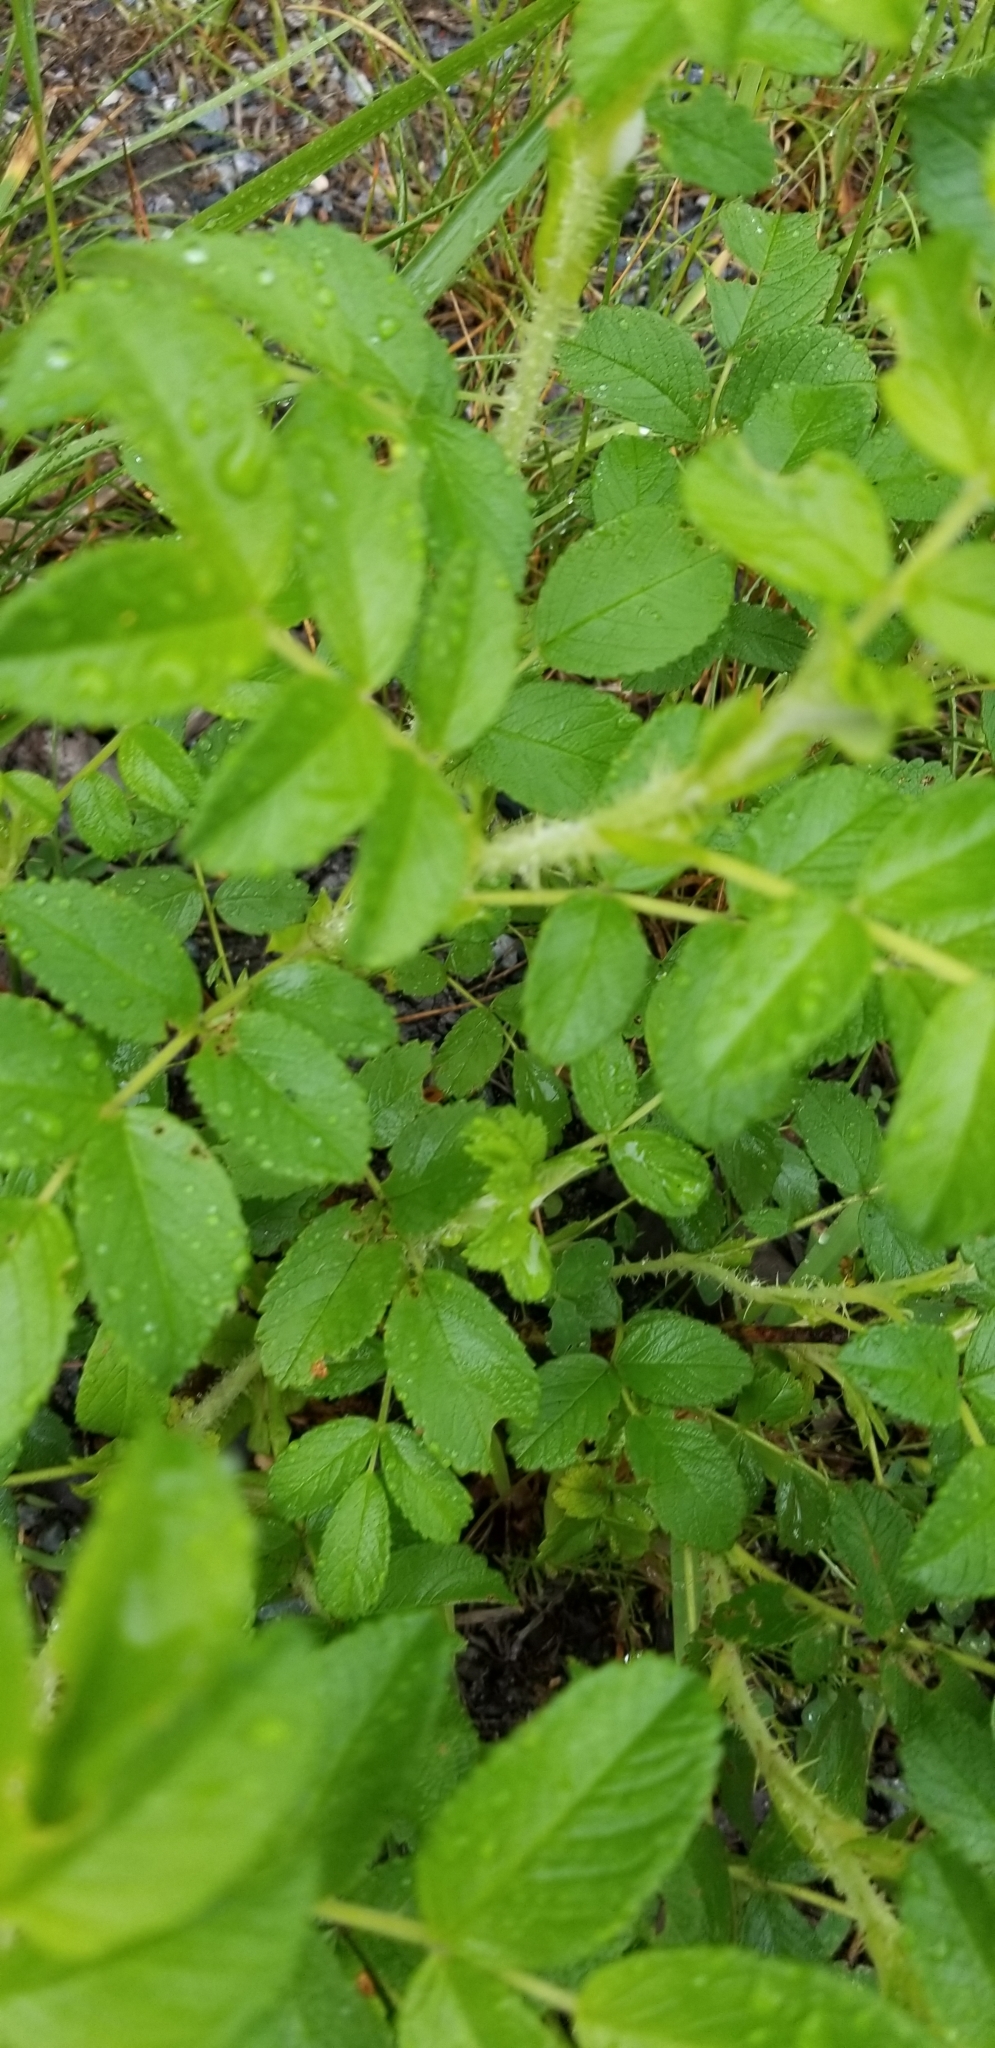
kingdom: Plantae
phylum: Tracheophyta
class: Magnoliopsida
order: Rosales
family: Rosaceae
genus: Rosa
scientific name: Rosa rugosa
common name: Japanese rose
